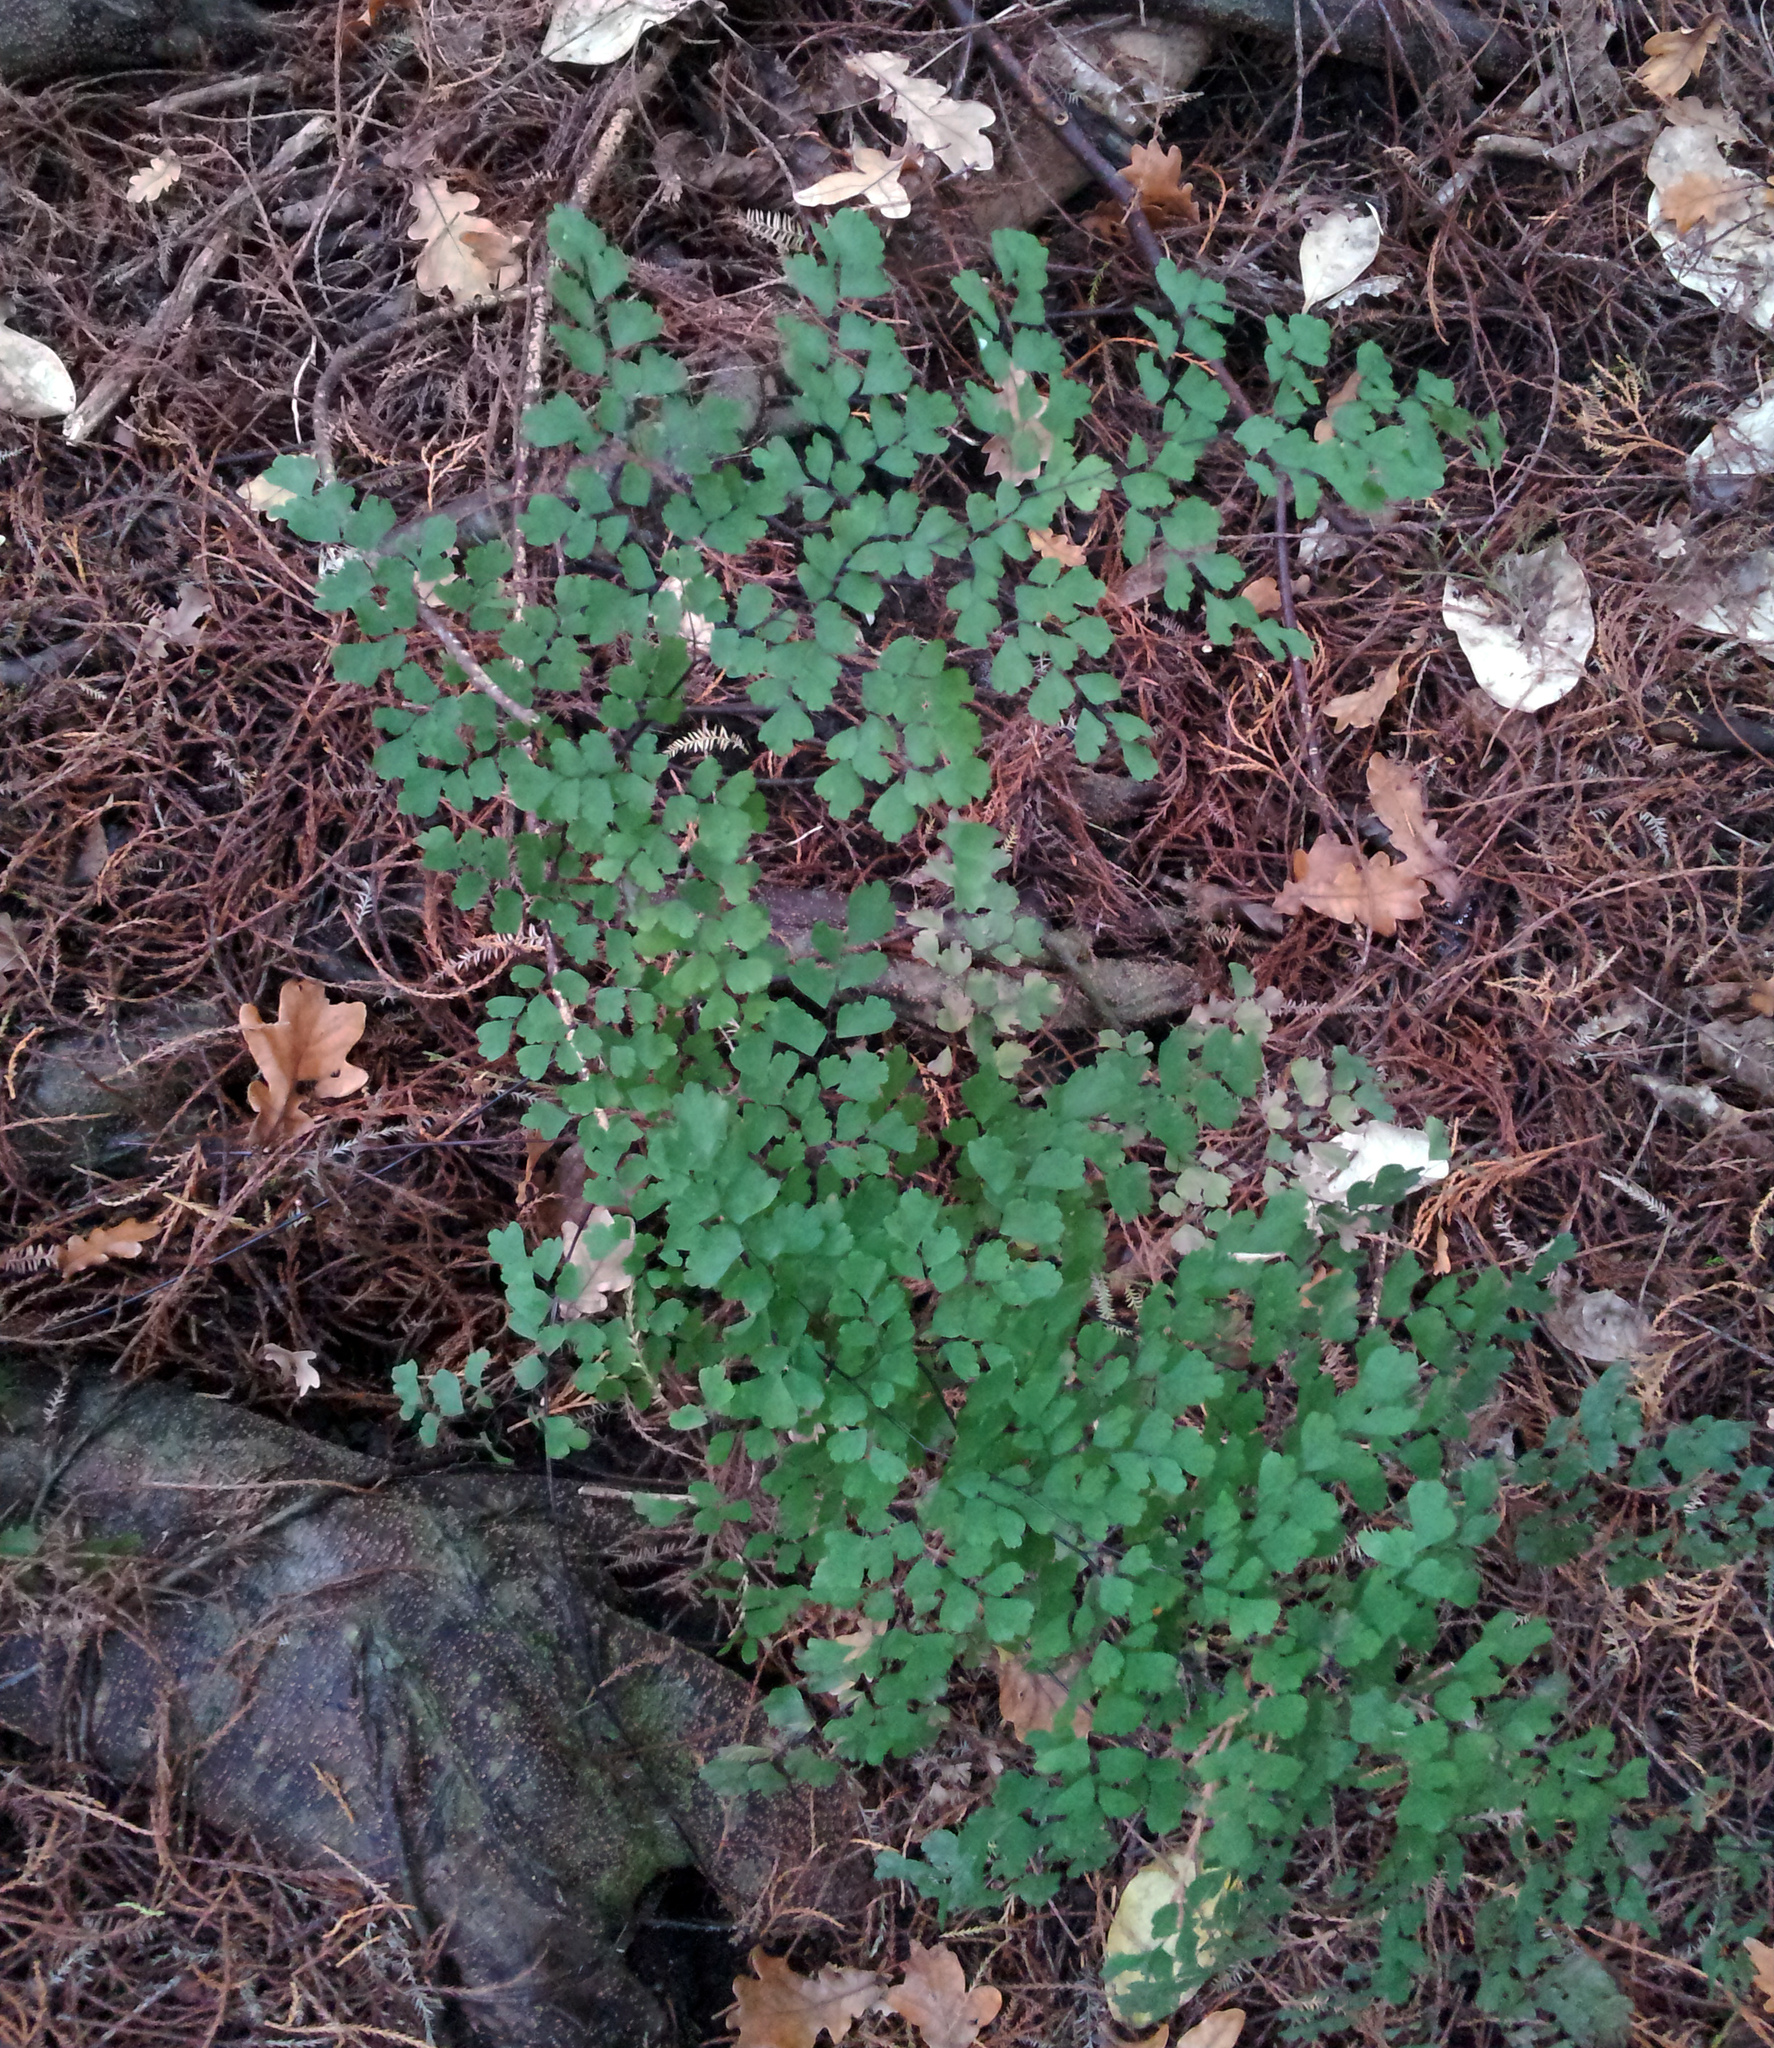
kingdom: Plantae
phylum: Tracheophyta
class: Polypodiopsida
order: Polypodiales
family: Pteridaceae
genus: Adiantum
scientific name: Adiantum raddianum
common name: Delta maidenhair fern
